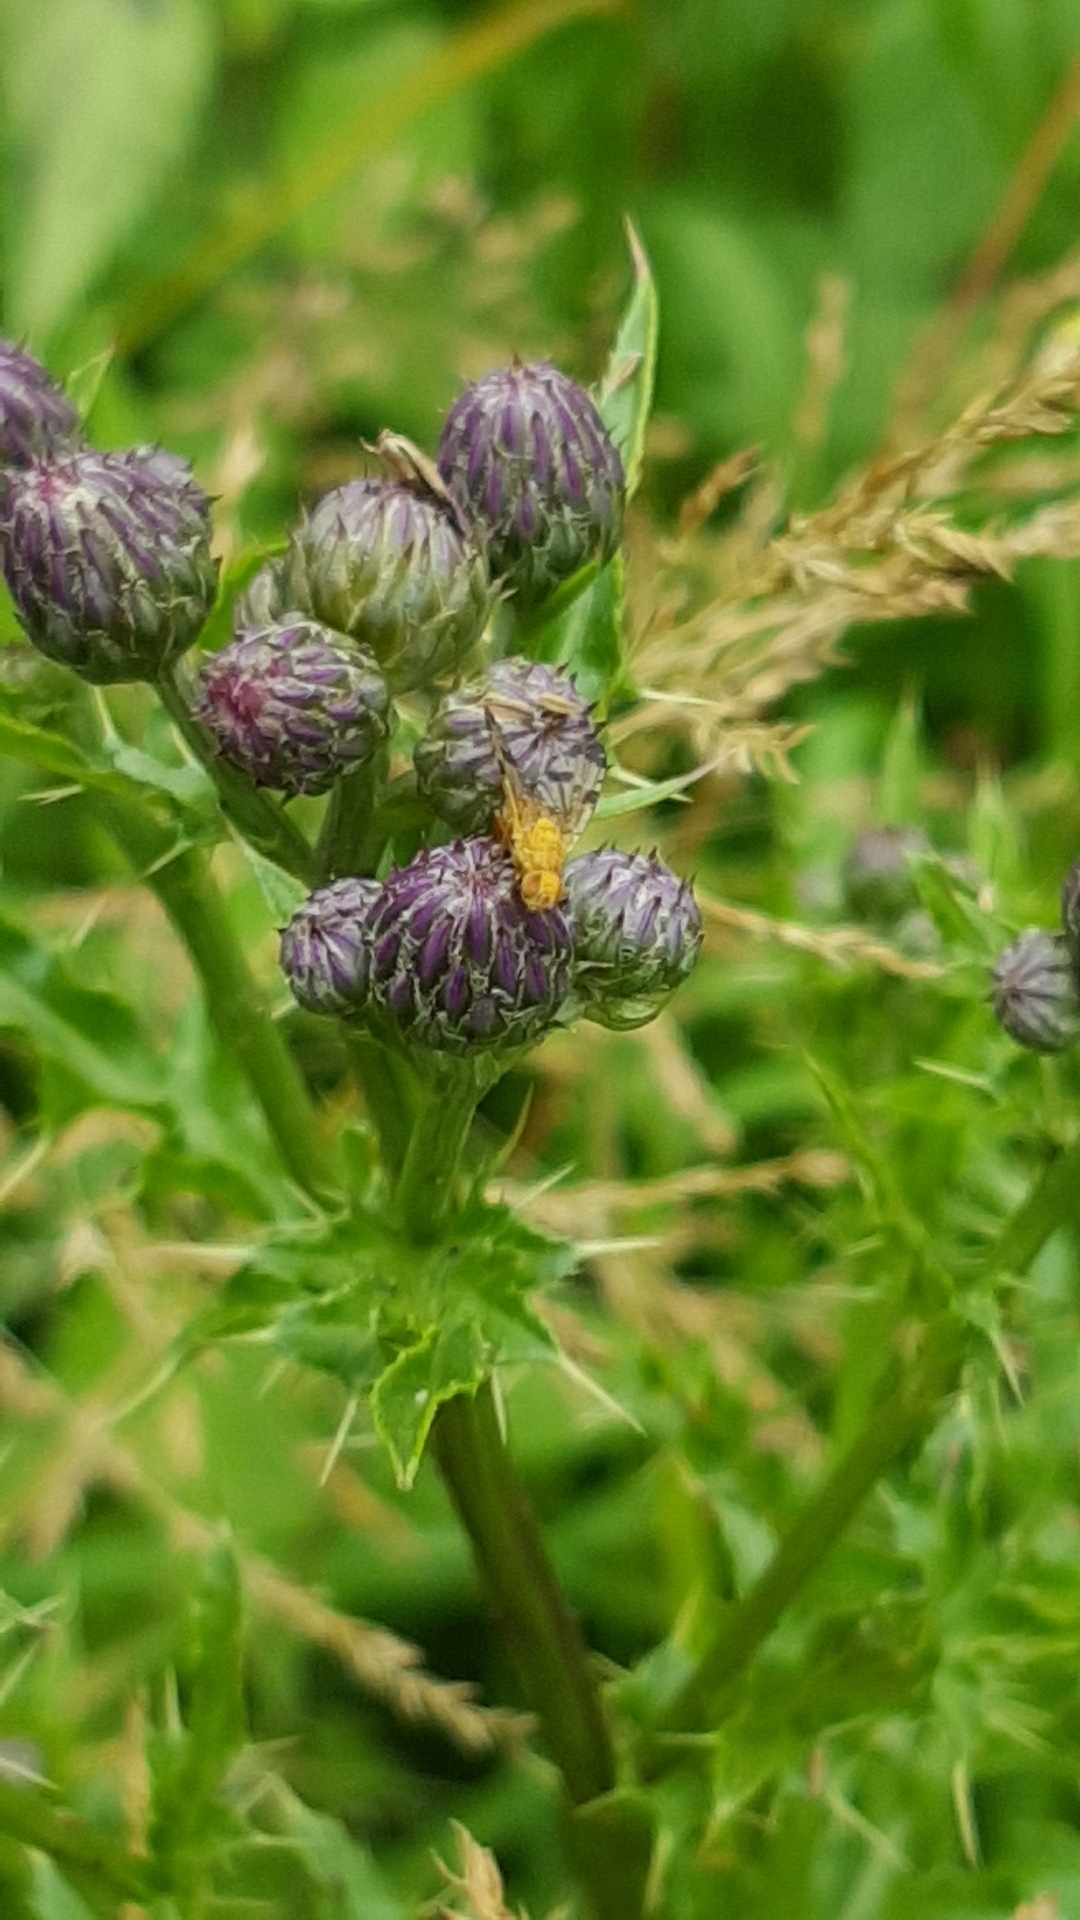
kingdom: Animalia
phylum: Arthropoda
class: Insecta
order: Diptera
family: Tephritidae
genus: Xyphosia
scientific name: Xyphosia miliaria
